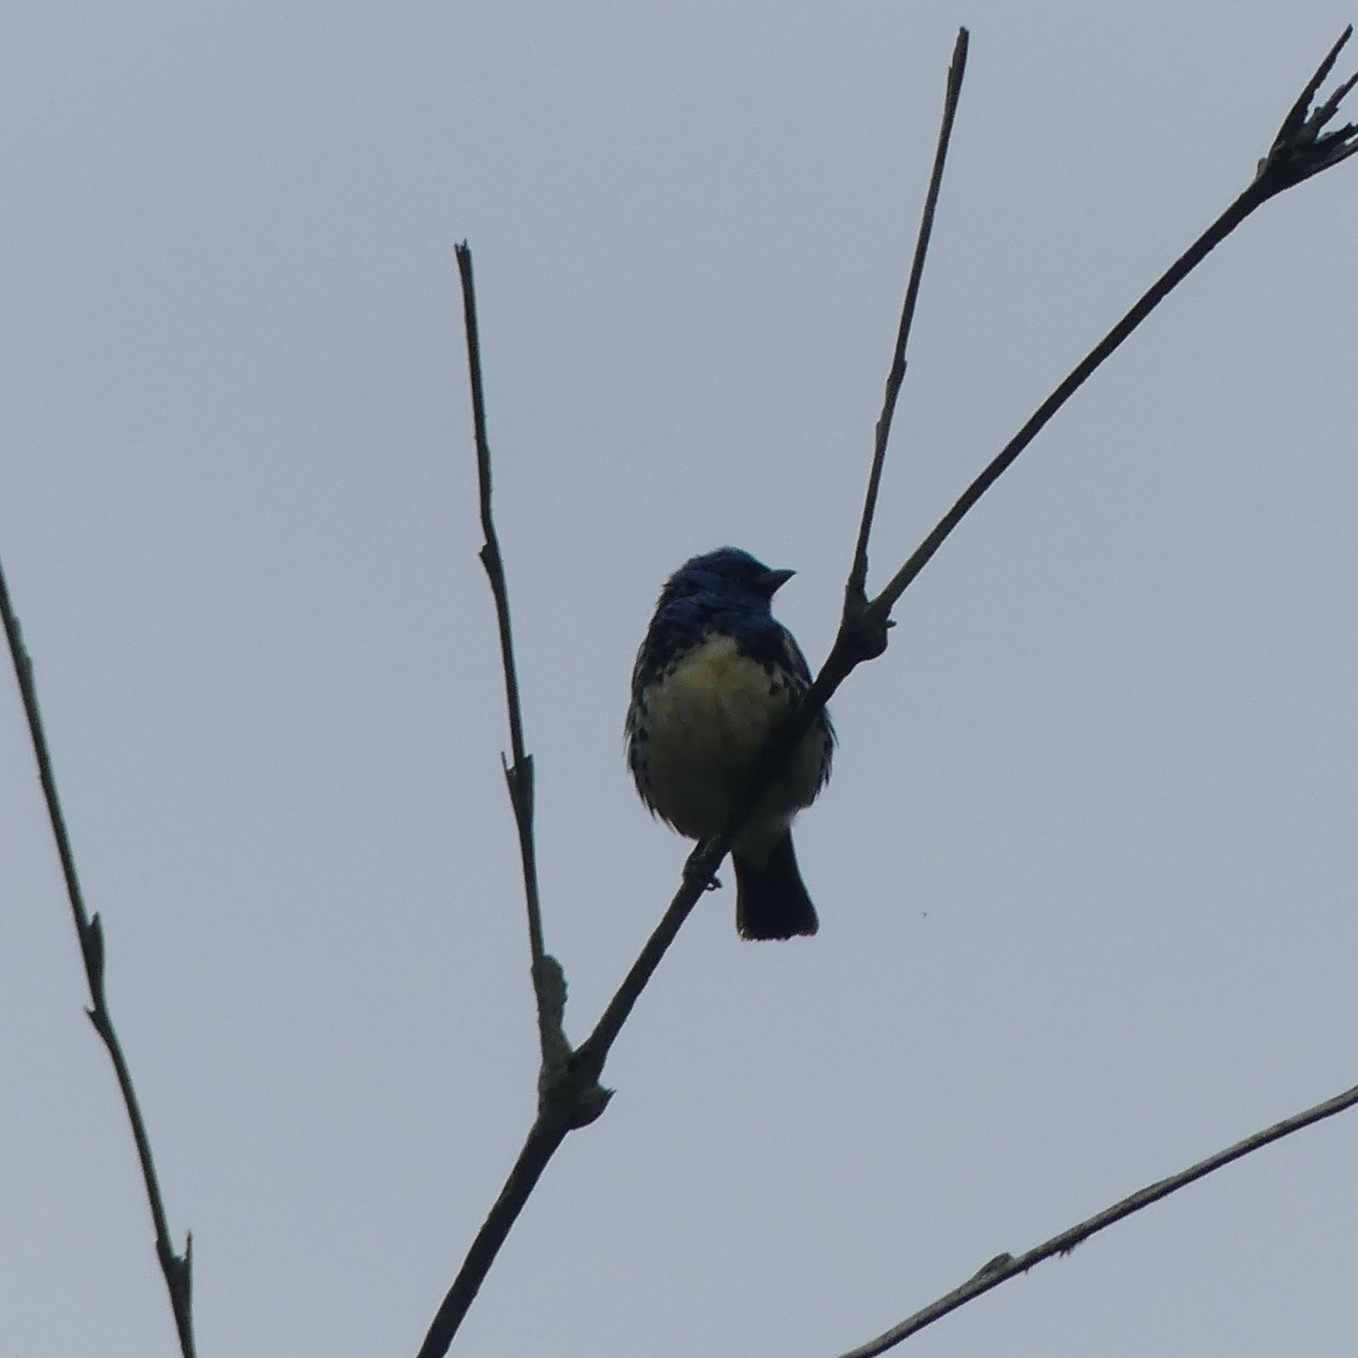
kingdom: Animalia
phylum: Chordata
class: Aves
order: Passeriformes
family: Thraupidae
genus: Tangara
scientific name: Tangara mexicana
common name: Turquoise tanager
